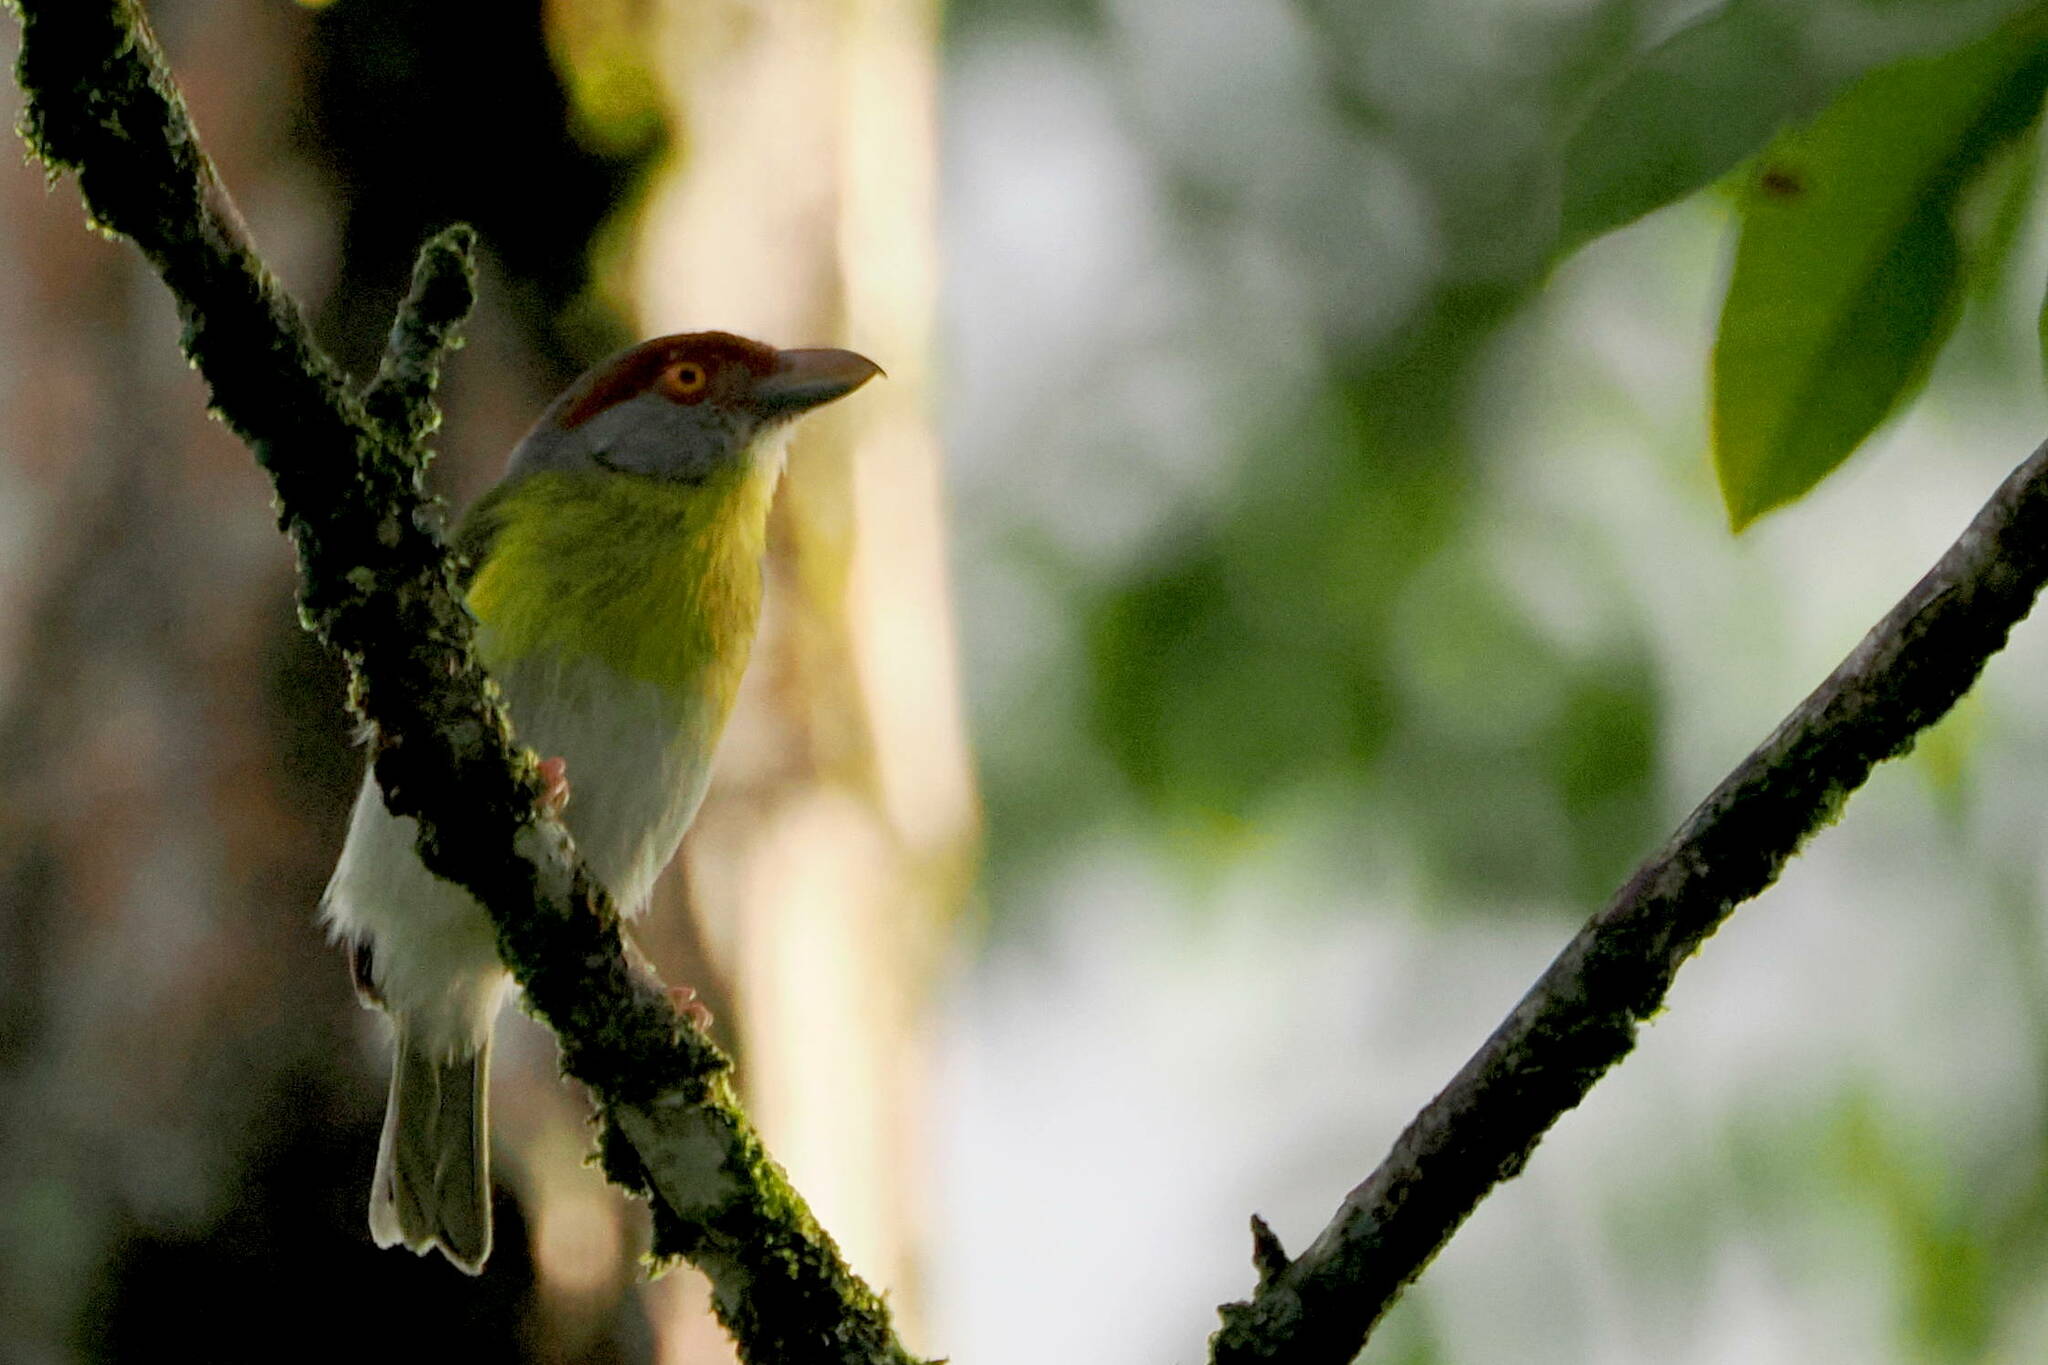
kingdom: Animalia
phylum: Chordata
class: Aves
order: Passeriformes
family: Vireonidae
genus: Cyclarhis
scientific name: Cyclarhis gujanensis
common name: Rufous-browed peppershrike
